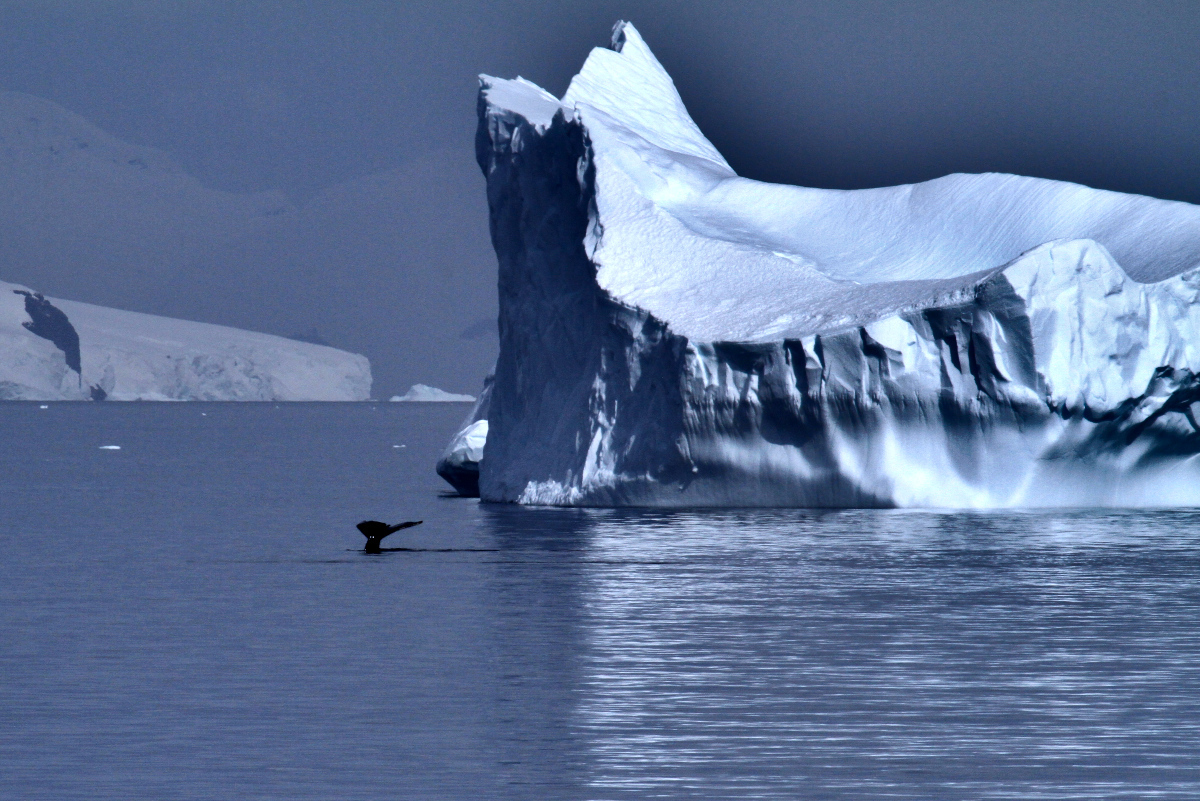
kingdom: Animalia
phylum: Chordata
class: Mammalia
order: Cetacea
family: Balaenopteridae
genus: Megaptera
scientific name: Megaptera novaeangliae
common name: Humpback whale
